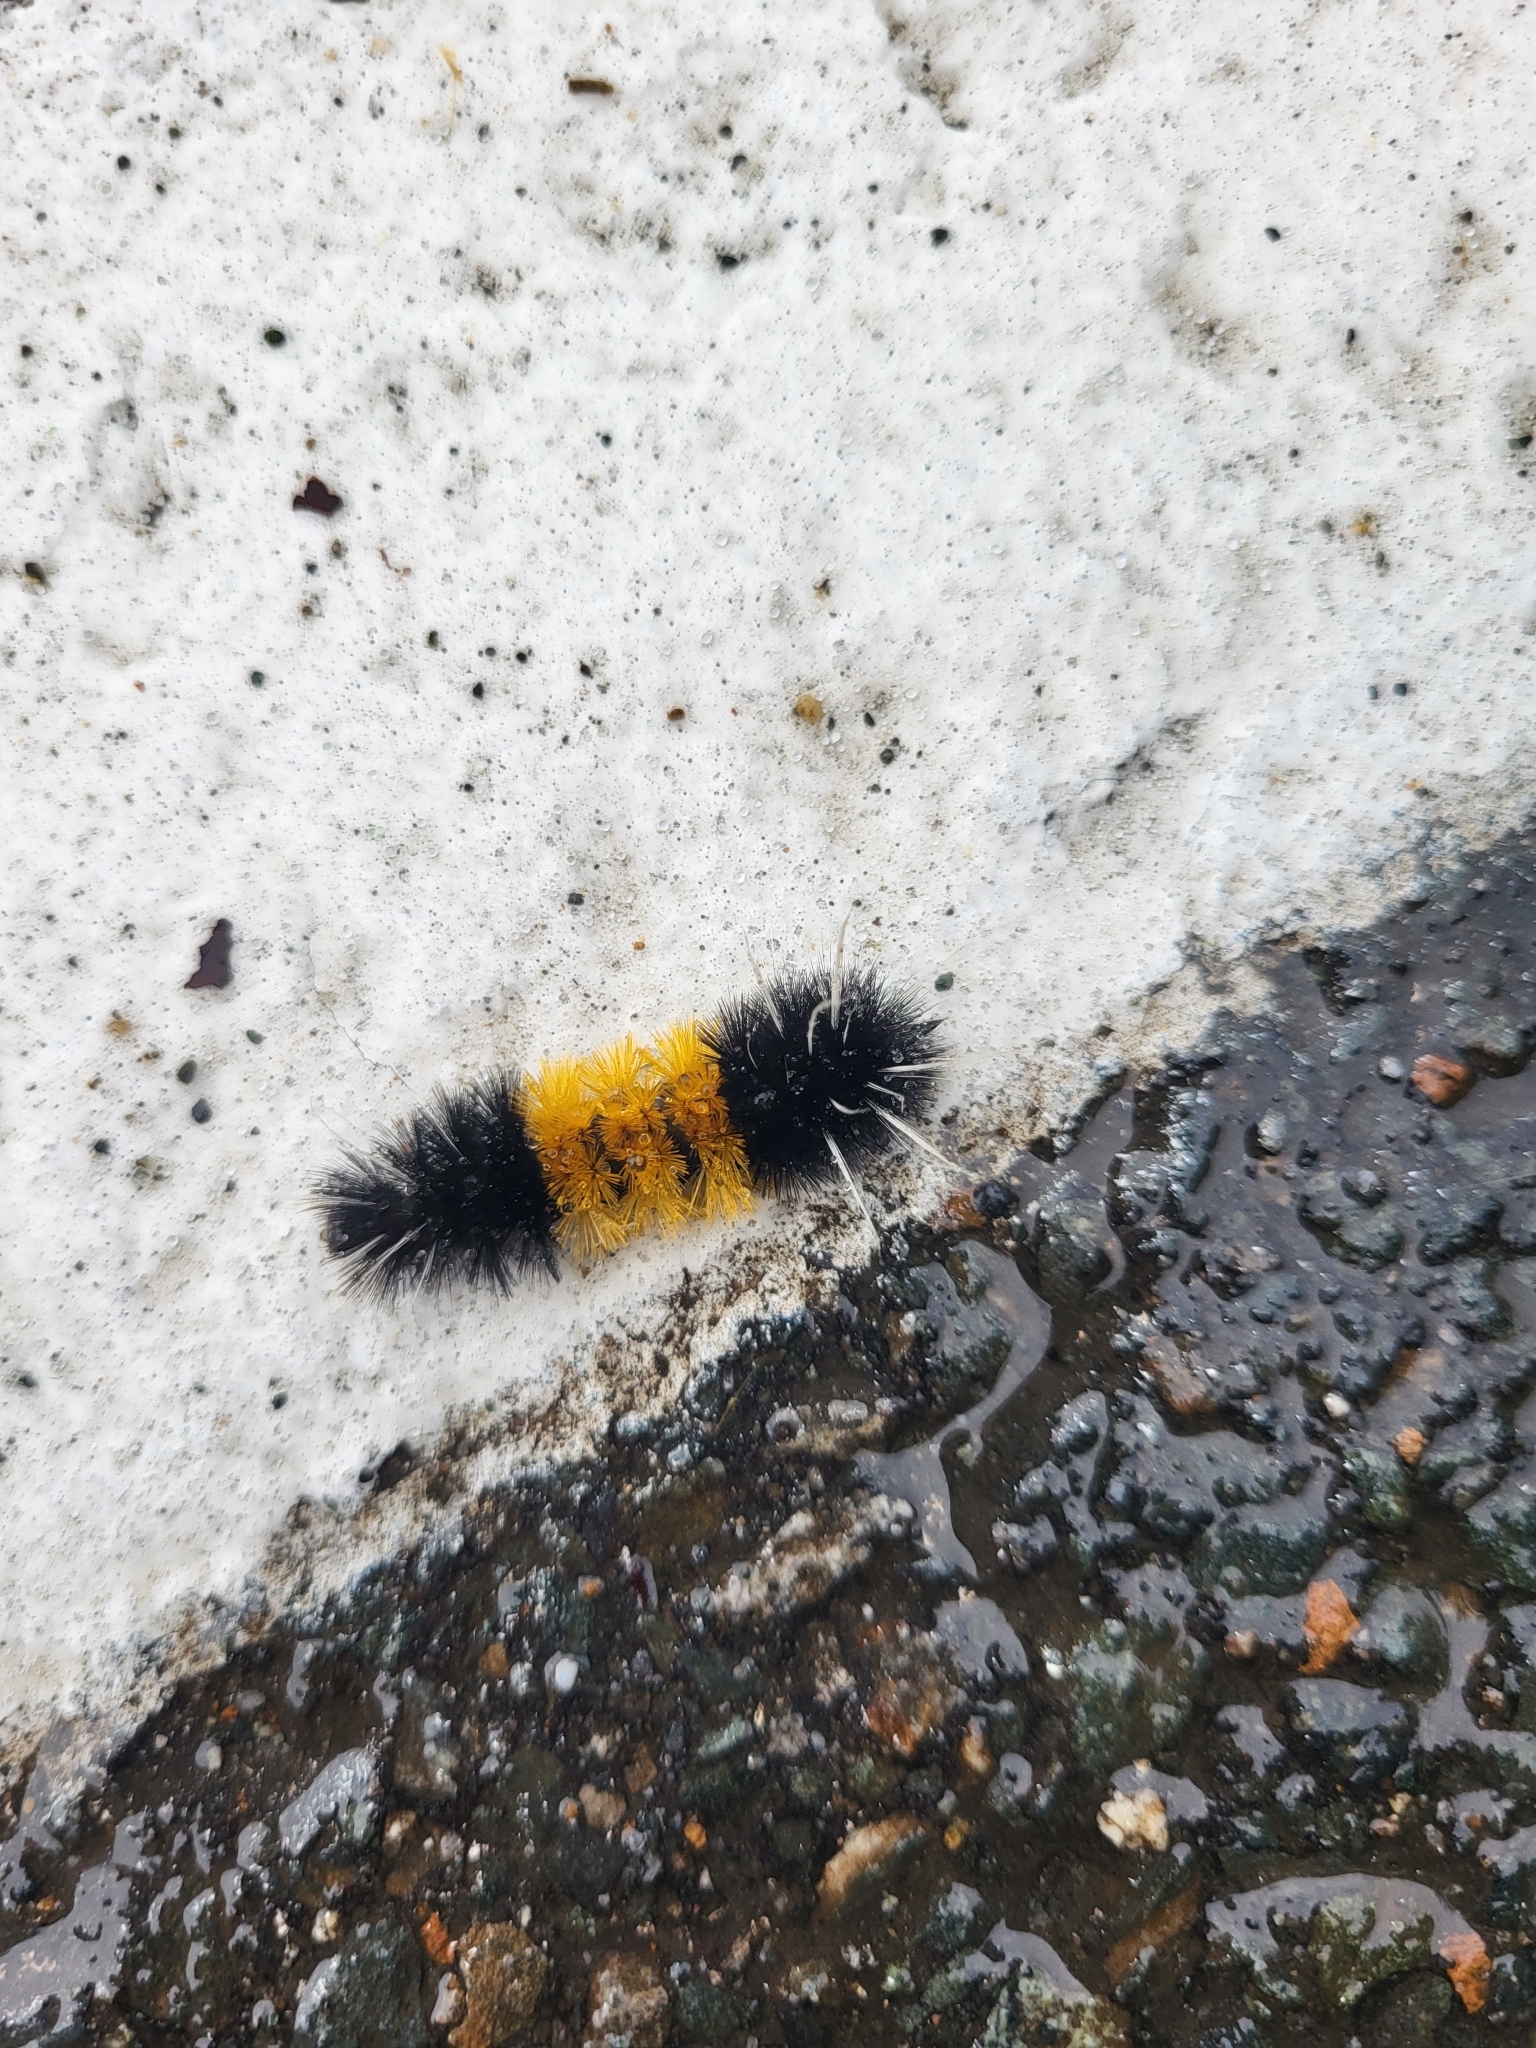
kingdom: Animalia
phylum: Arthropoda
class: Insecta
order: Lepidoptera
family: Erebidae
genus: Lophocampa
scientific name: Lophocampa maculata
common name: Spotted tussock moth
